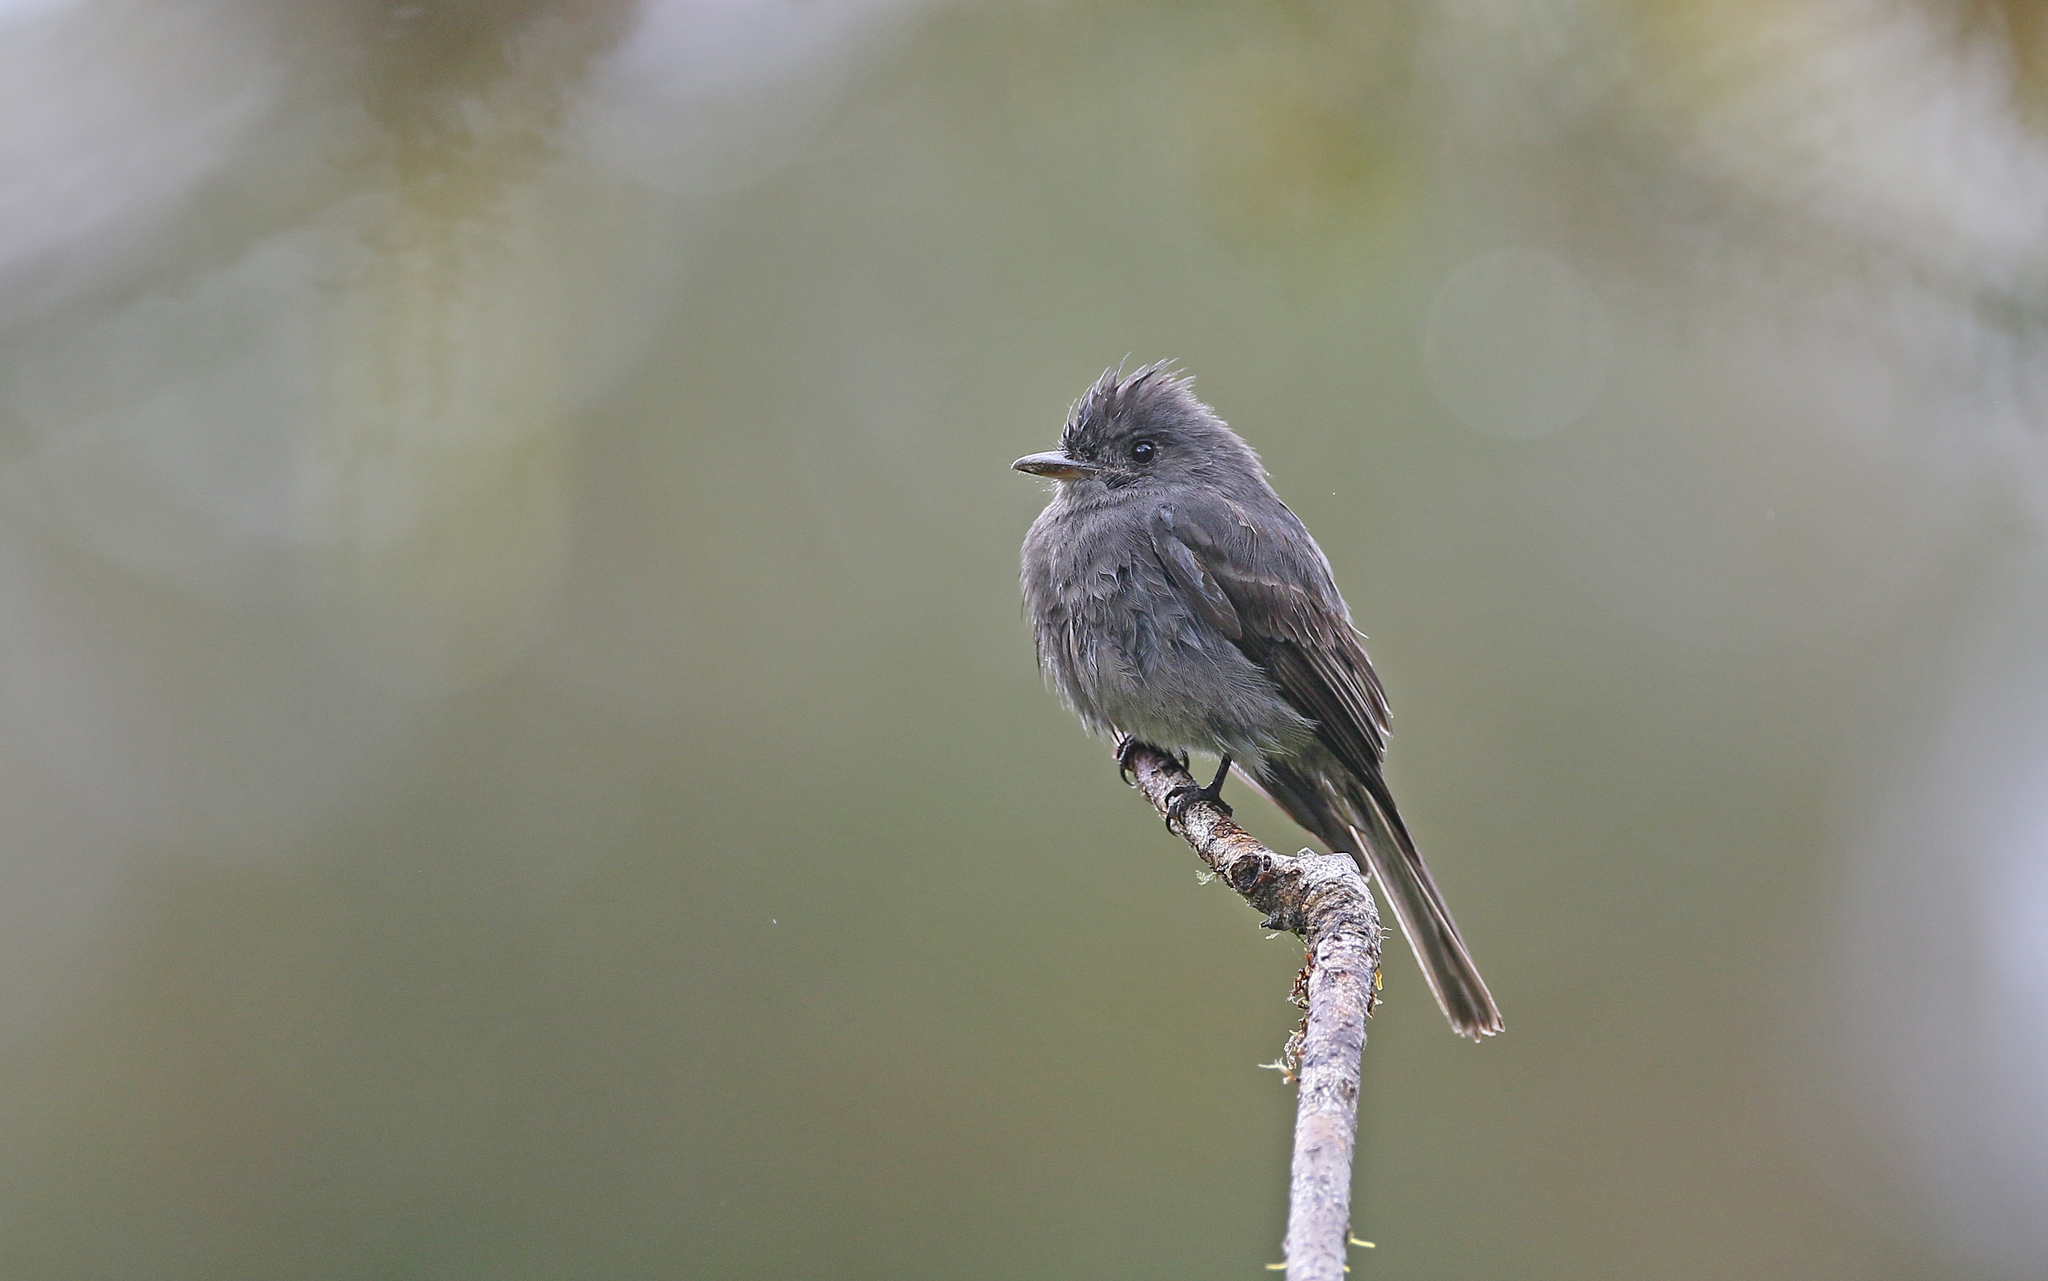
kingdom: Animalia
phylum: Chordata
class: Aves
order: Passeriformes
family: Tyrannidae
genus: Contopus
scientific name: Contopus fumigatus
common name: Smoke-colored pewee
